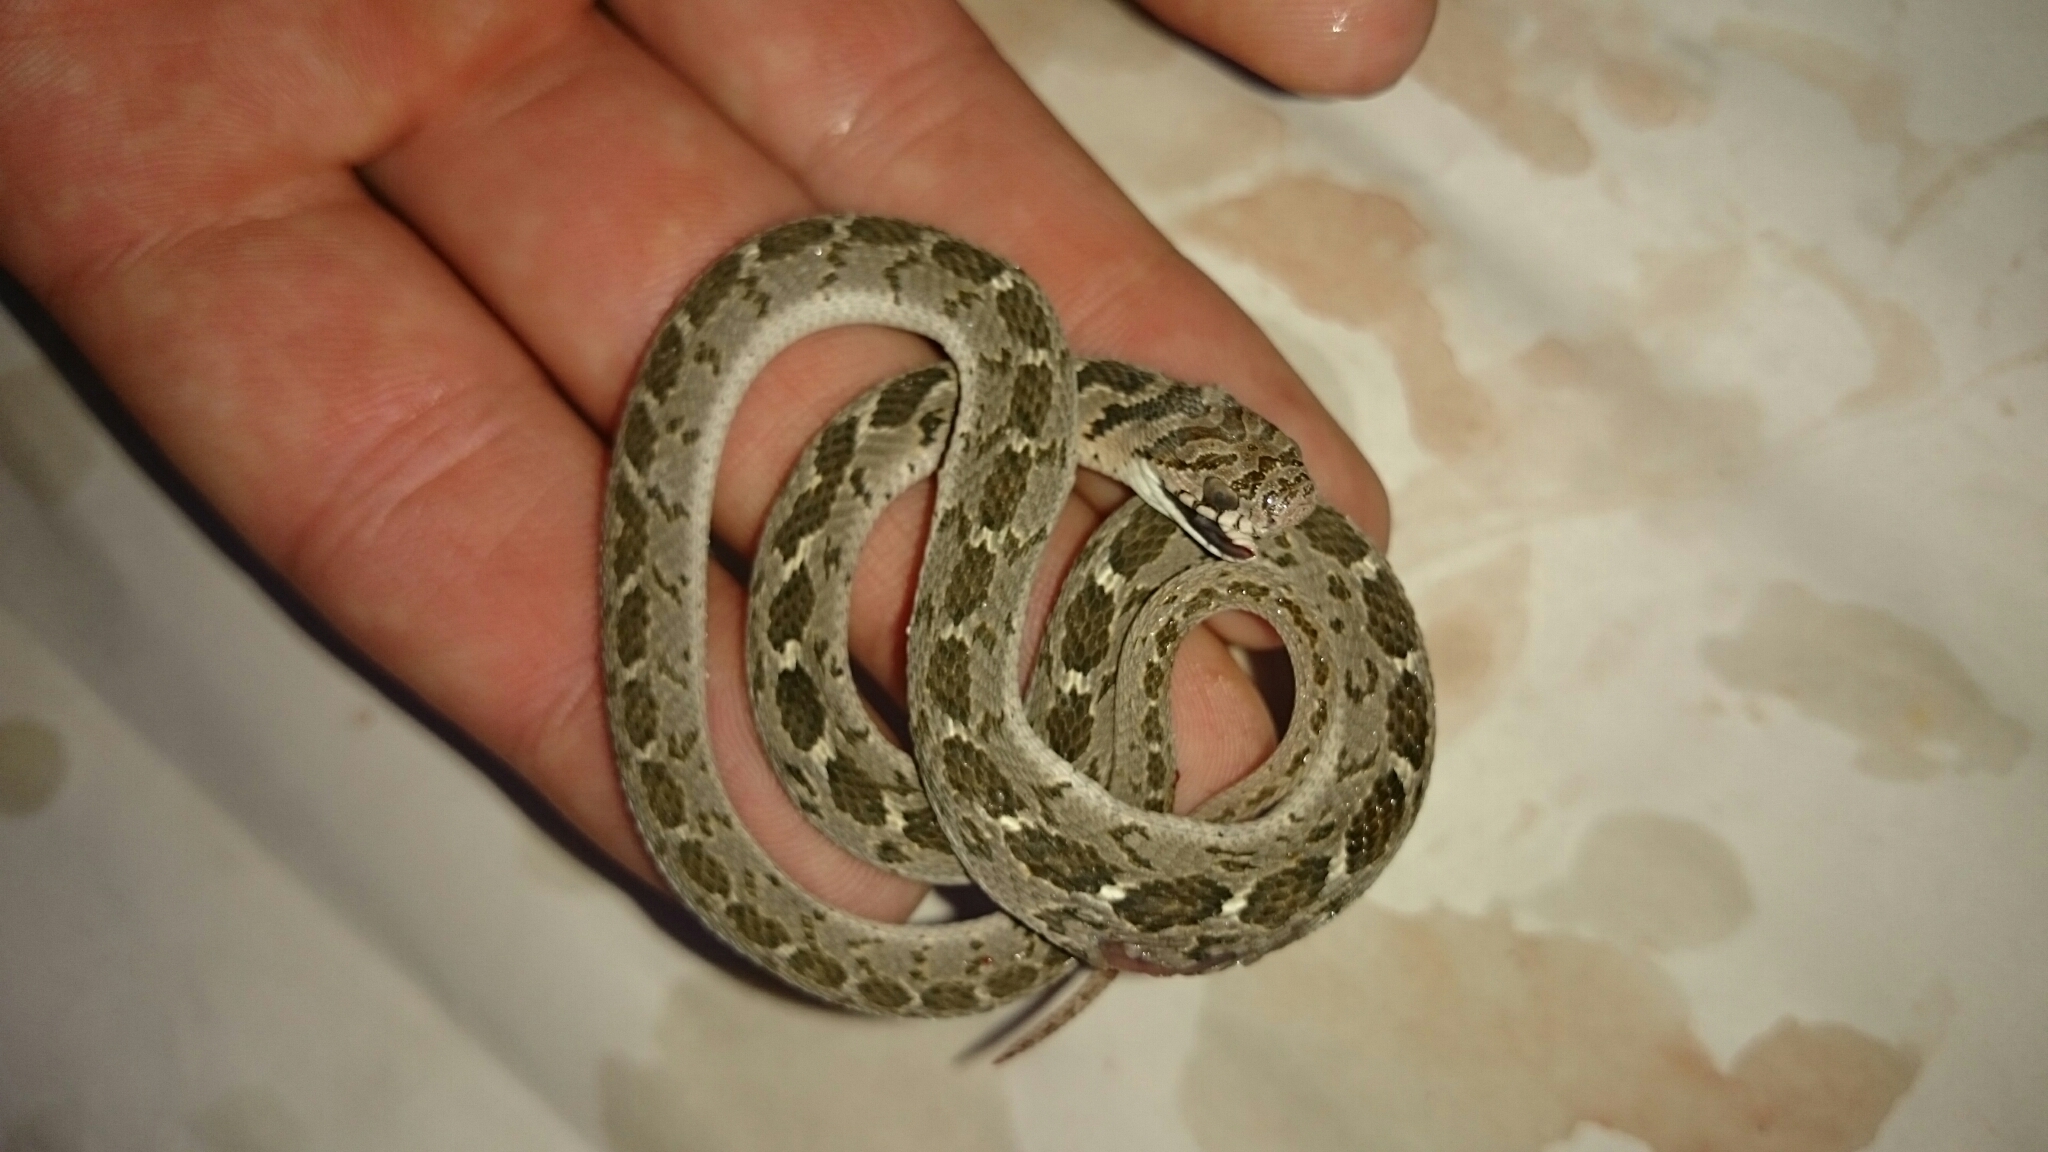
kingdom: Animalia
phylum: Chordata
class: Squamata
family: Colubridae
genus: Dasypeltis
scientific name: Dasypeltis scabra
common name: Common egg eater
